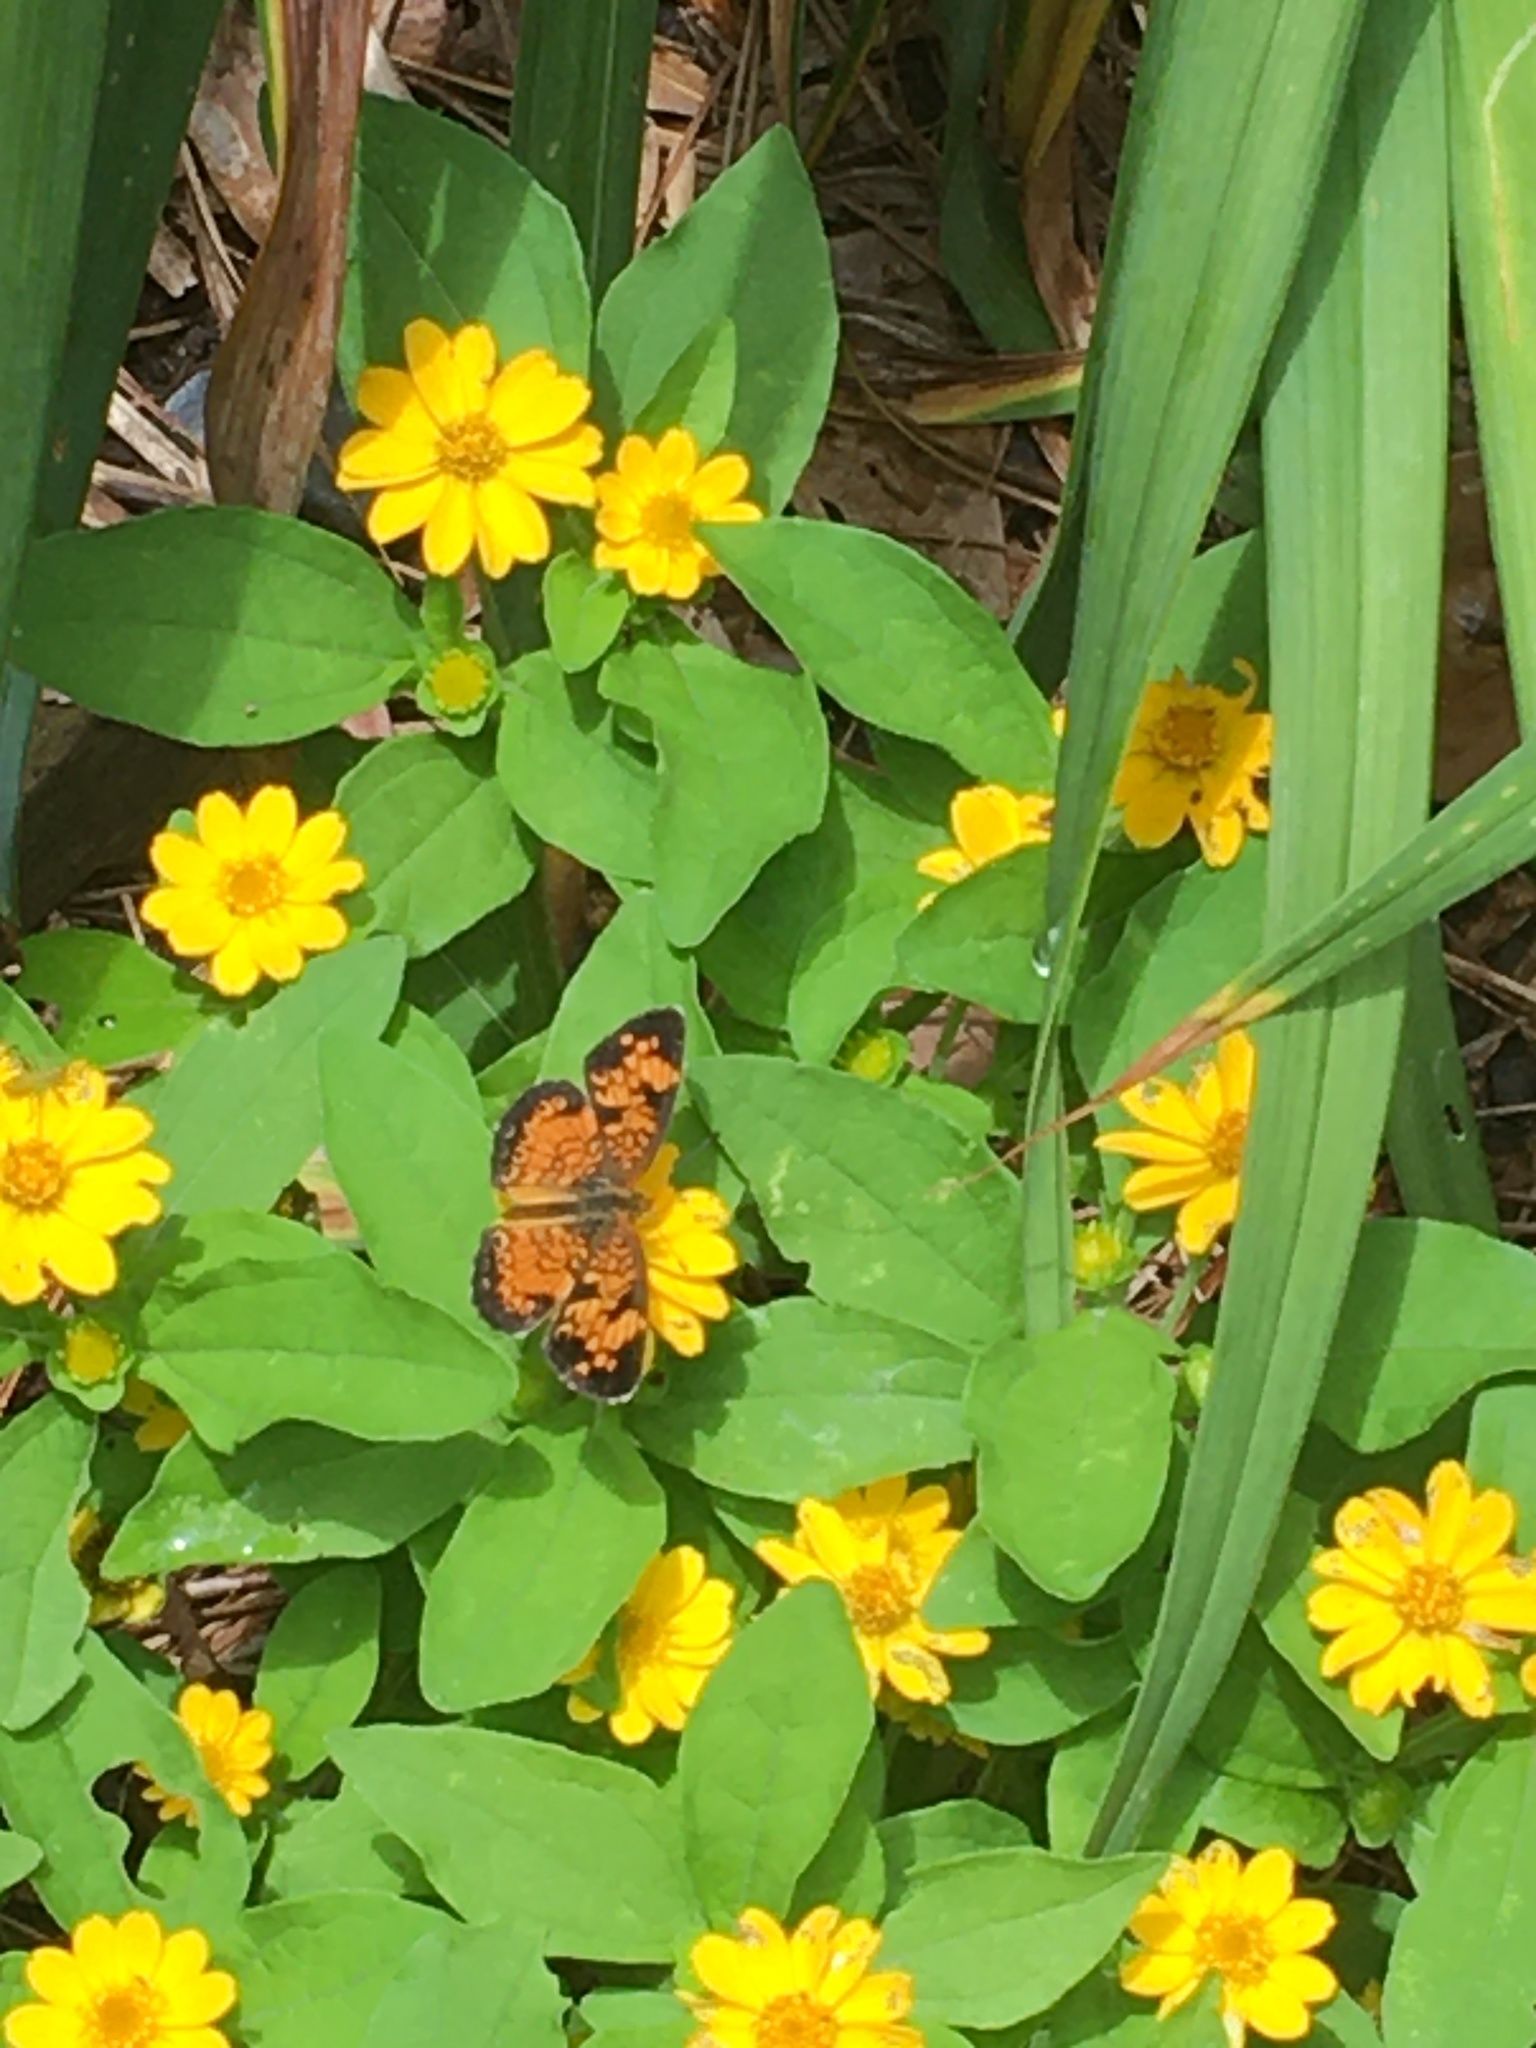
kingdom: Animalia
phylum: Arthropoda
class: Insecta
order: Lepidoptera
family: Nymphalidae
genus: Phyciodes
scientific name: Phyciodes tharos
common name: Pearl crescent
